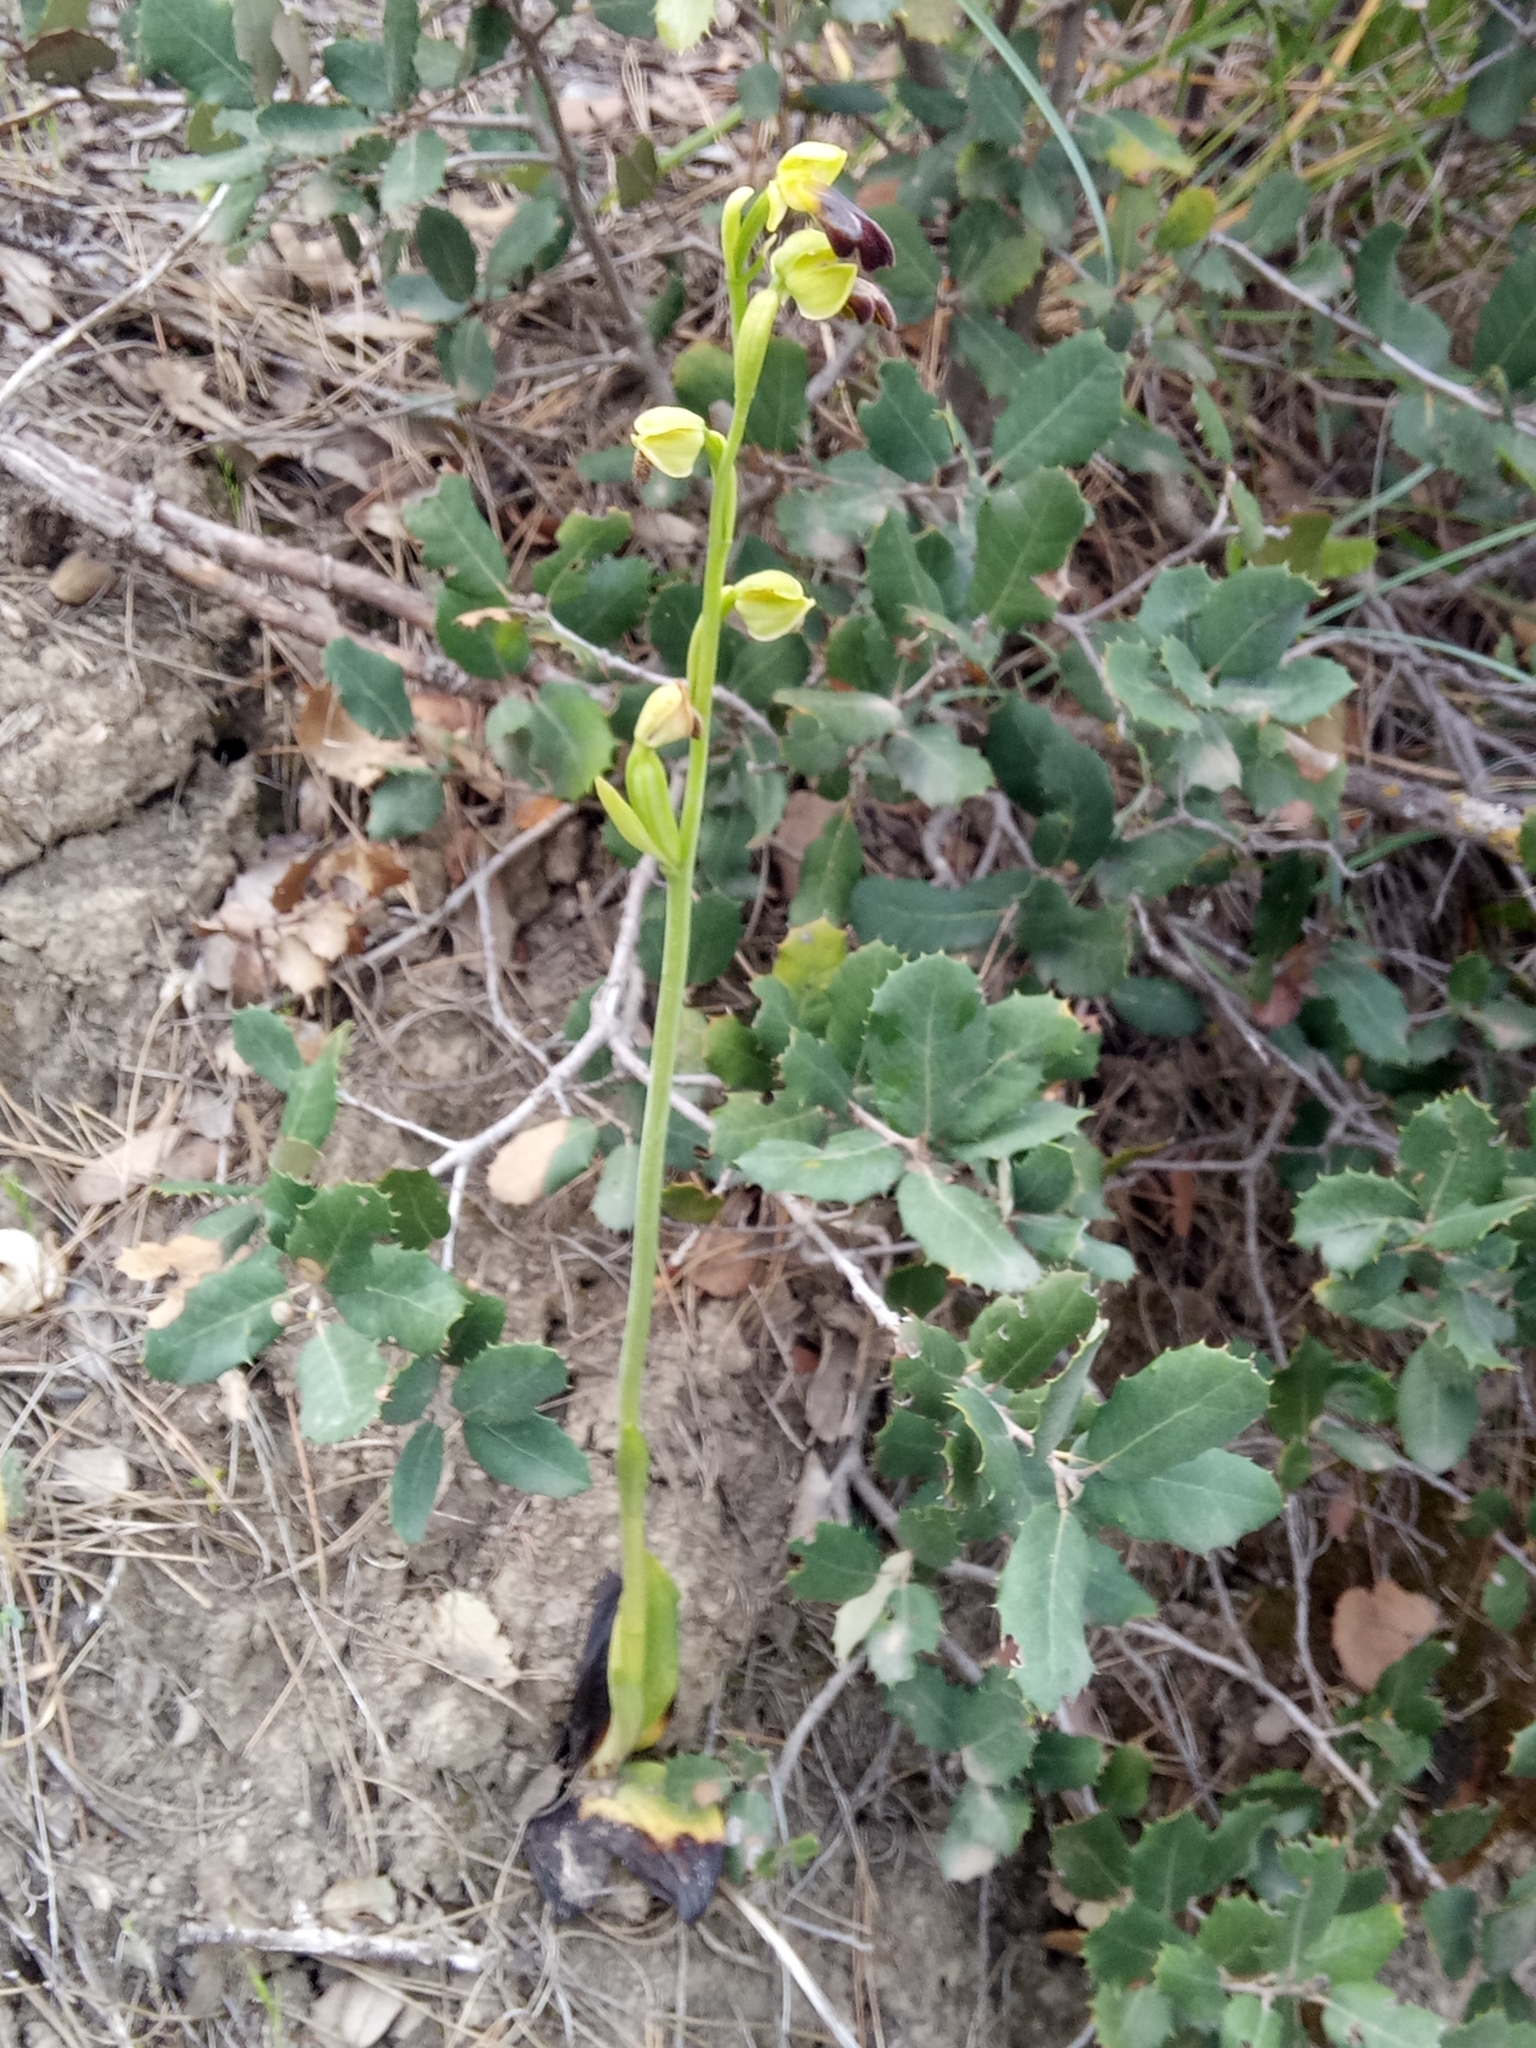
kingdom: Plantae
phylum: Tracheophyta
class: Liliopsida
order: Asparagales
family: Orchidaceae
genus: Ophrys
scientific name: Ophrys fusca
